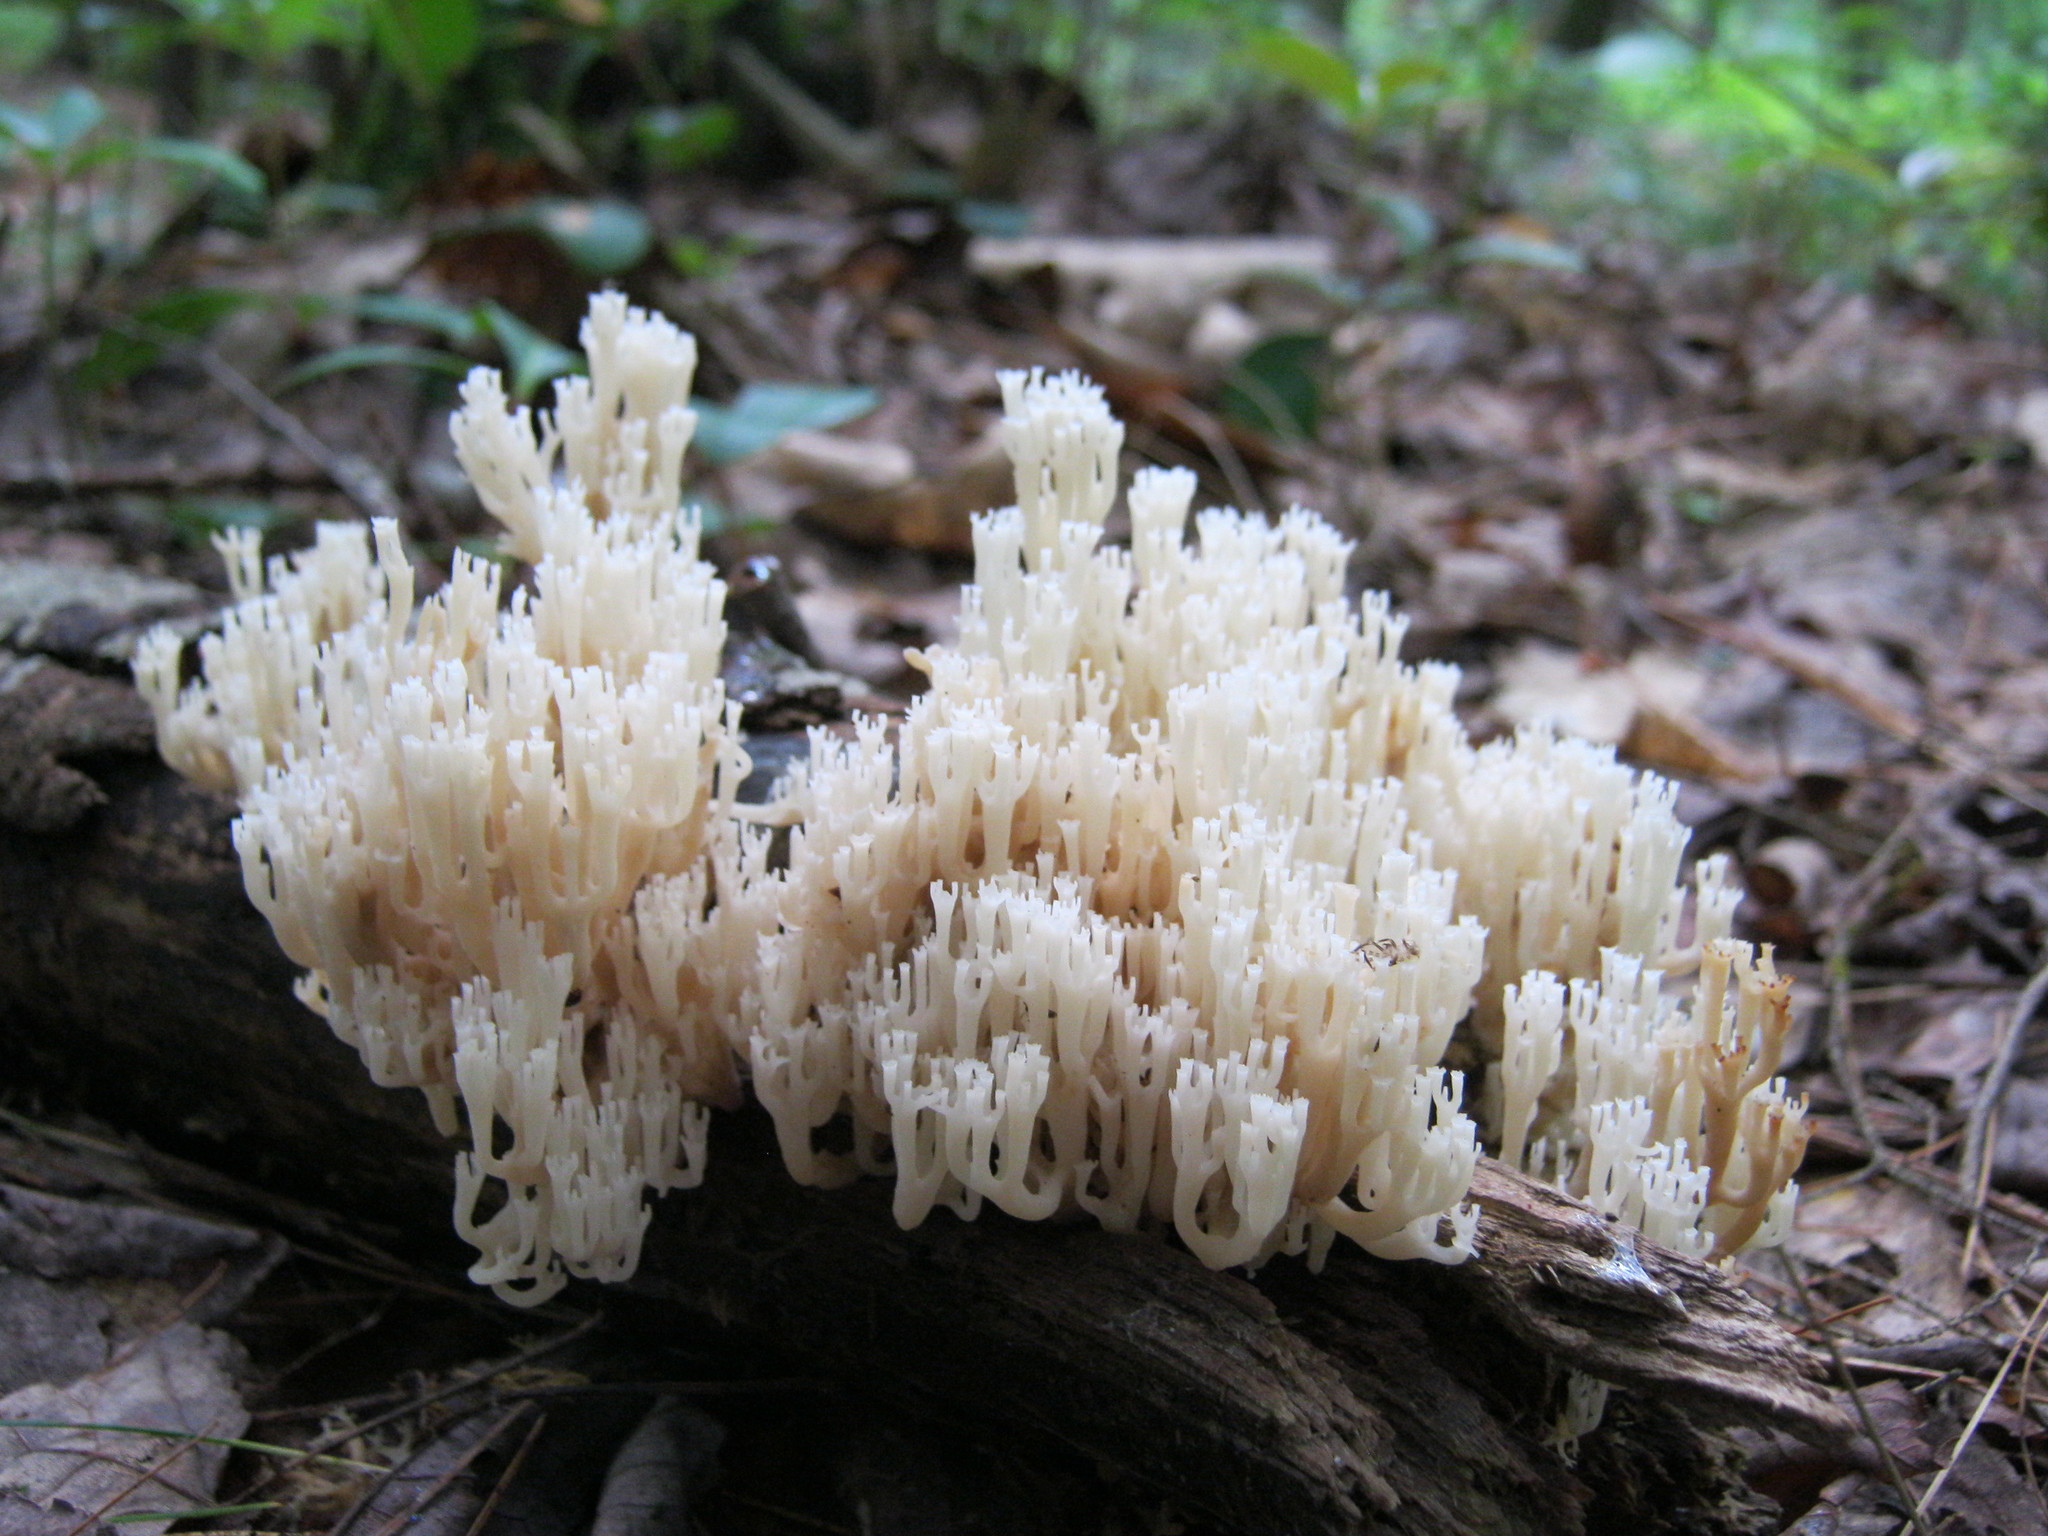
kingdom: Fungi
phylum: Basidiomycota
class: Agaricomycetes
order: Russulales
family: Auriscalpiaceae
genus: Artomyces
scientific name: Artomyces pyxidatus
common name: Crown-tipped coral fungus
